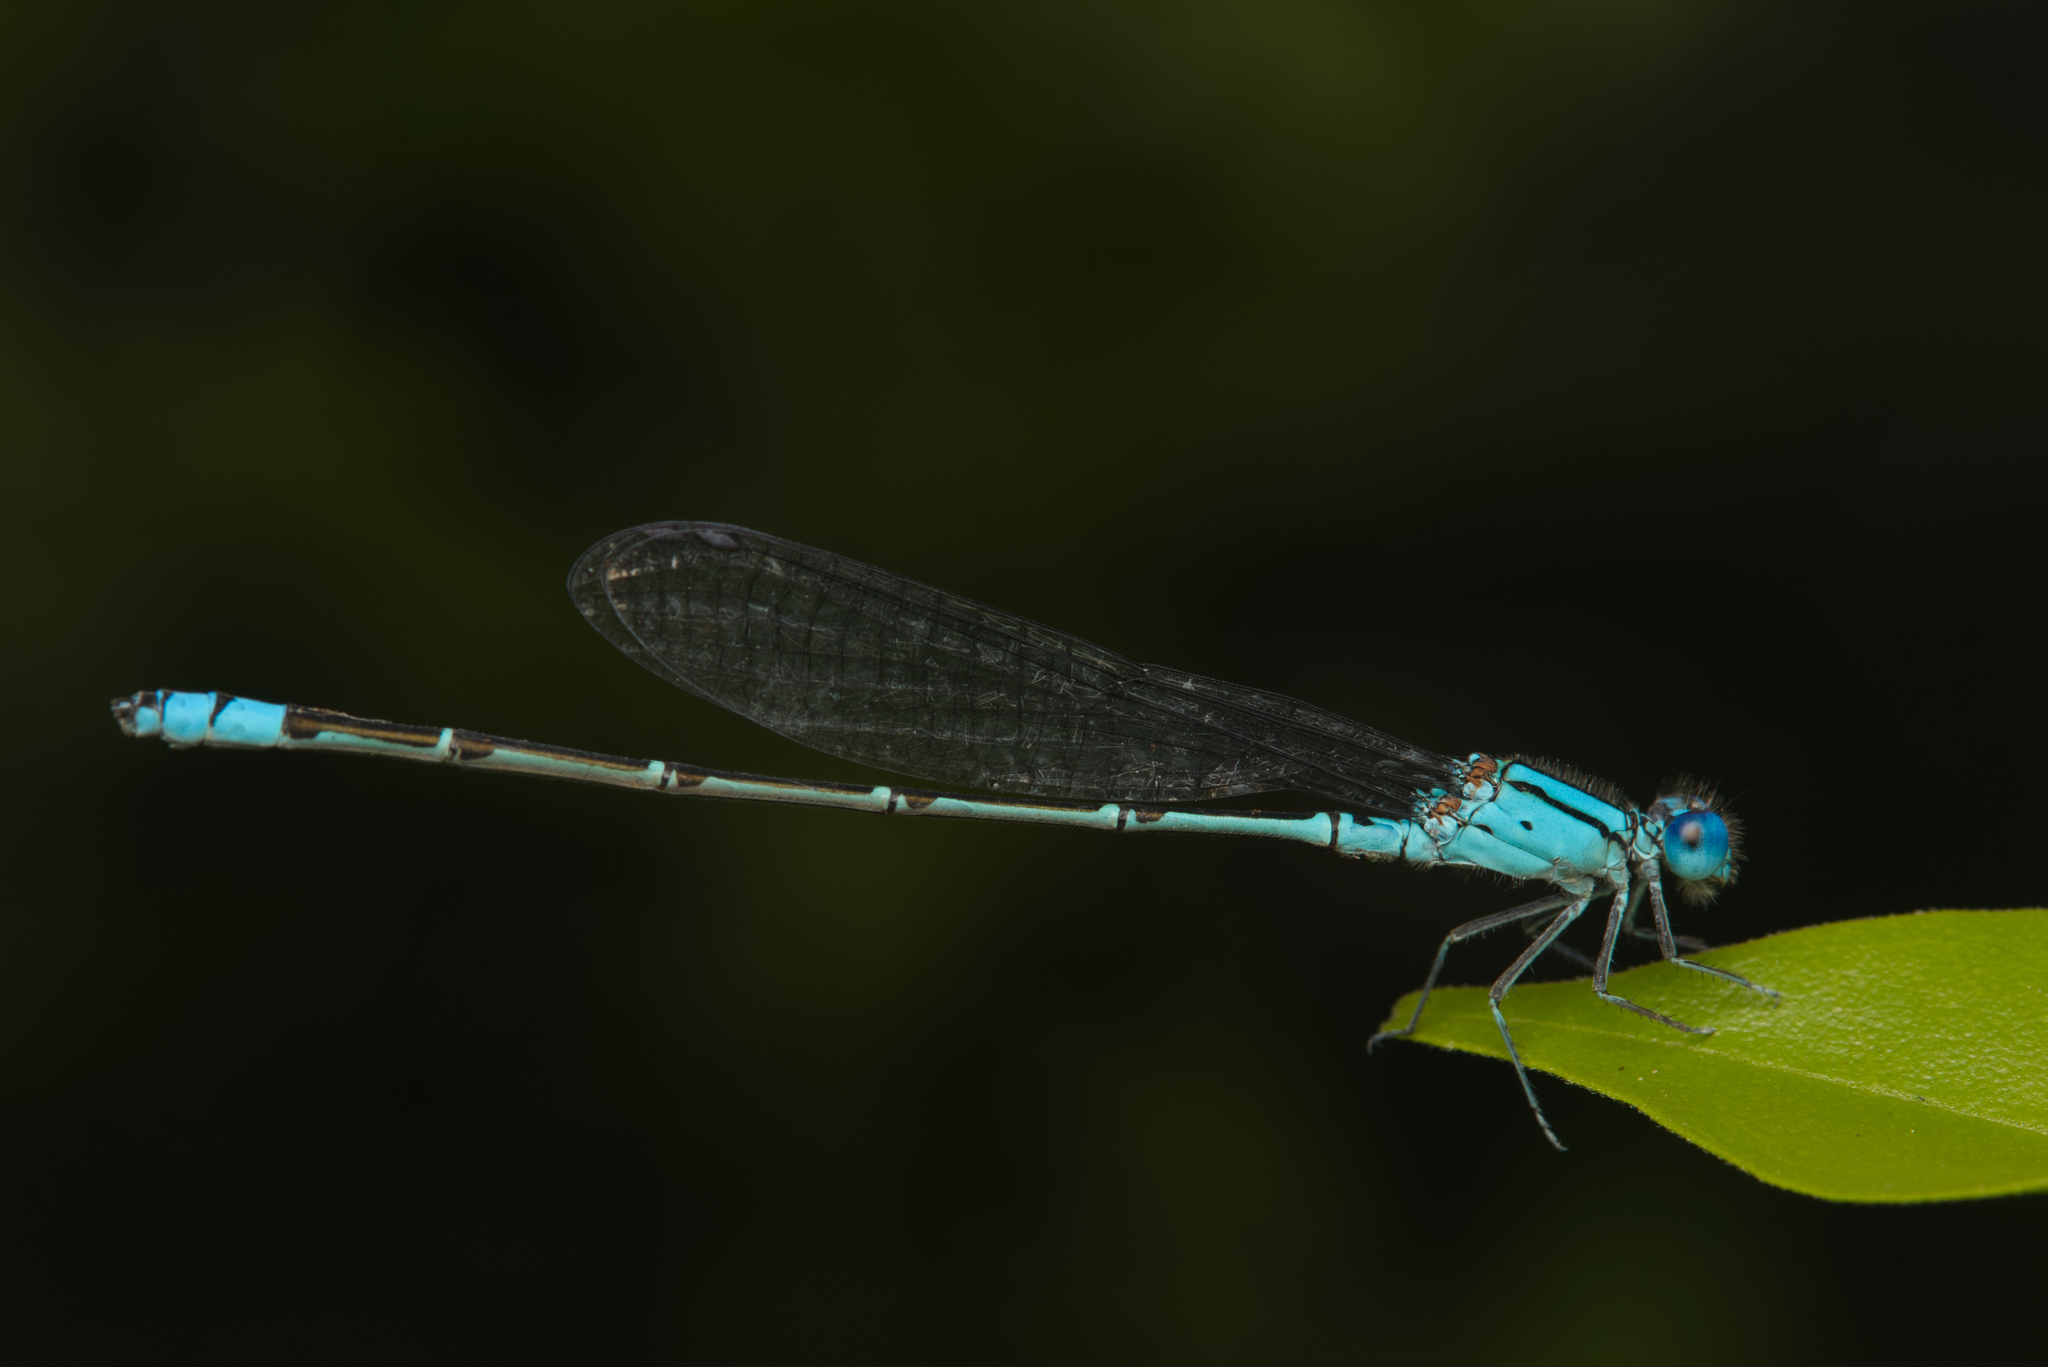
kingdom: Animalia
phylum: Arthropoda
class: Insecta
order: Odonata
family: Coenagrionidae
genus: Pseudagrion
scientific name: Pseudagrion microcephalum
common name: Blue riverdamsel
